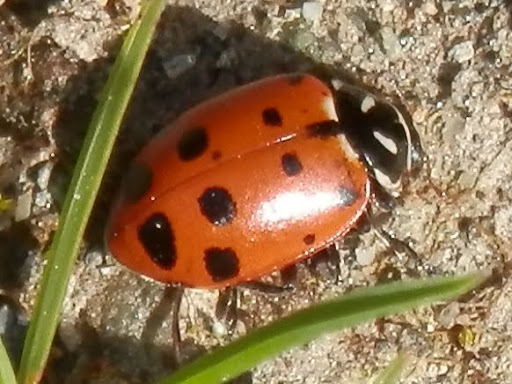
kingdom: Animalia
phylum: Arthropoda
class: Insecta
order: Coleoptera
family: Coccinellidae
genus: Hippodamia
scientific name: Hippodamia convergens
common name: Convergent lady beetle
